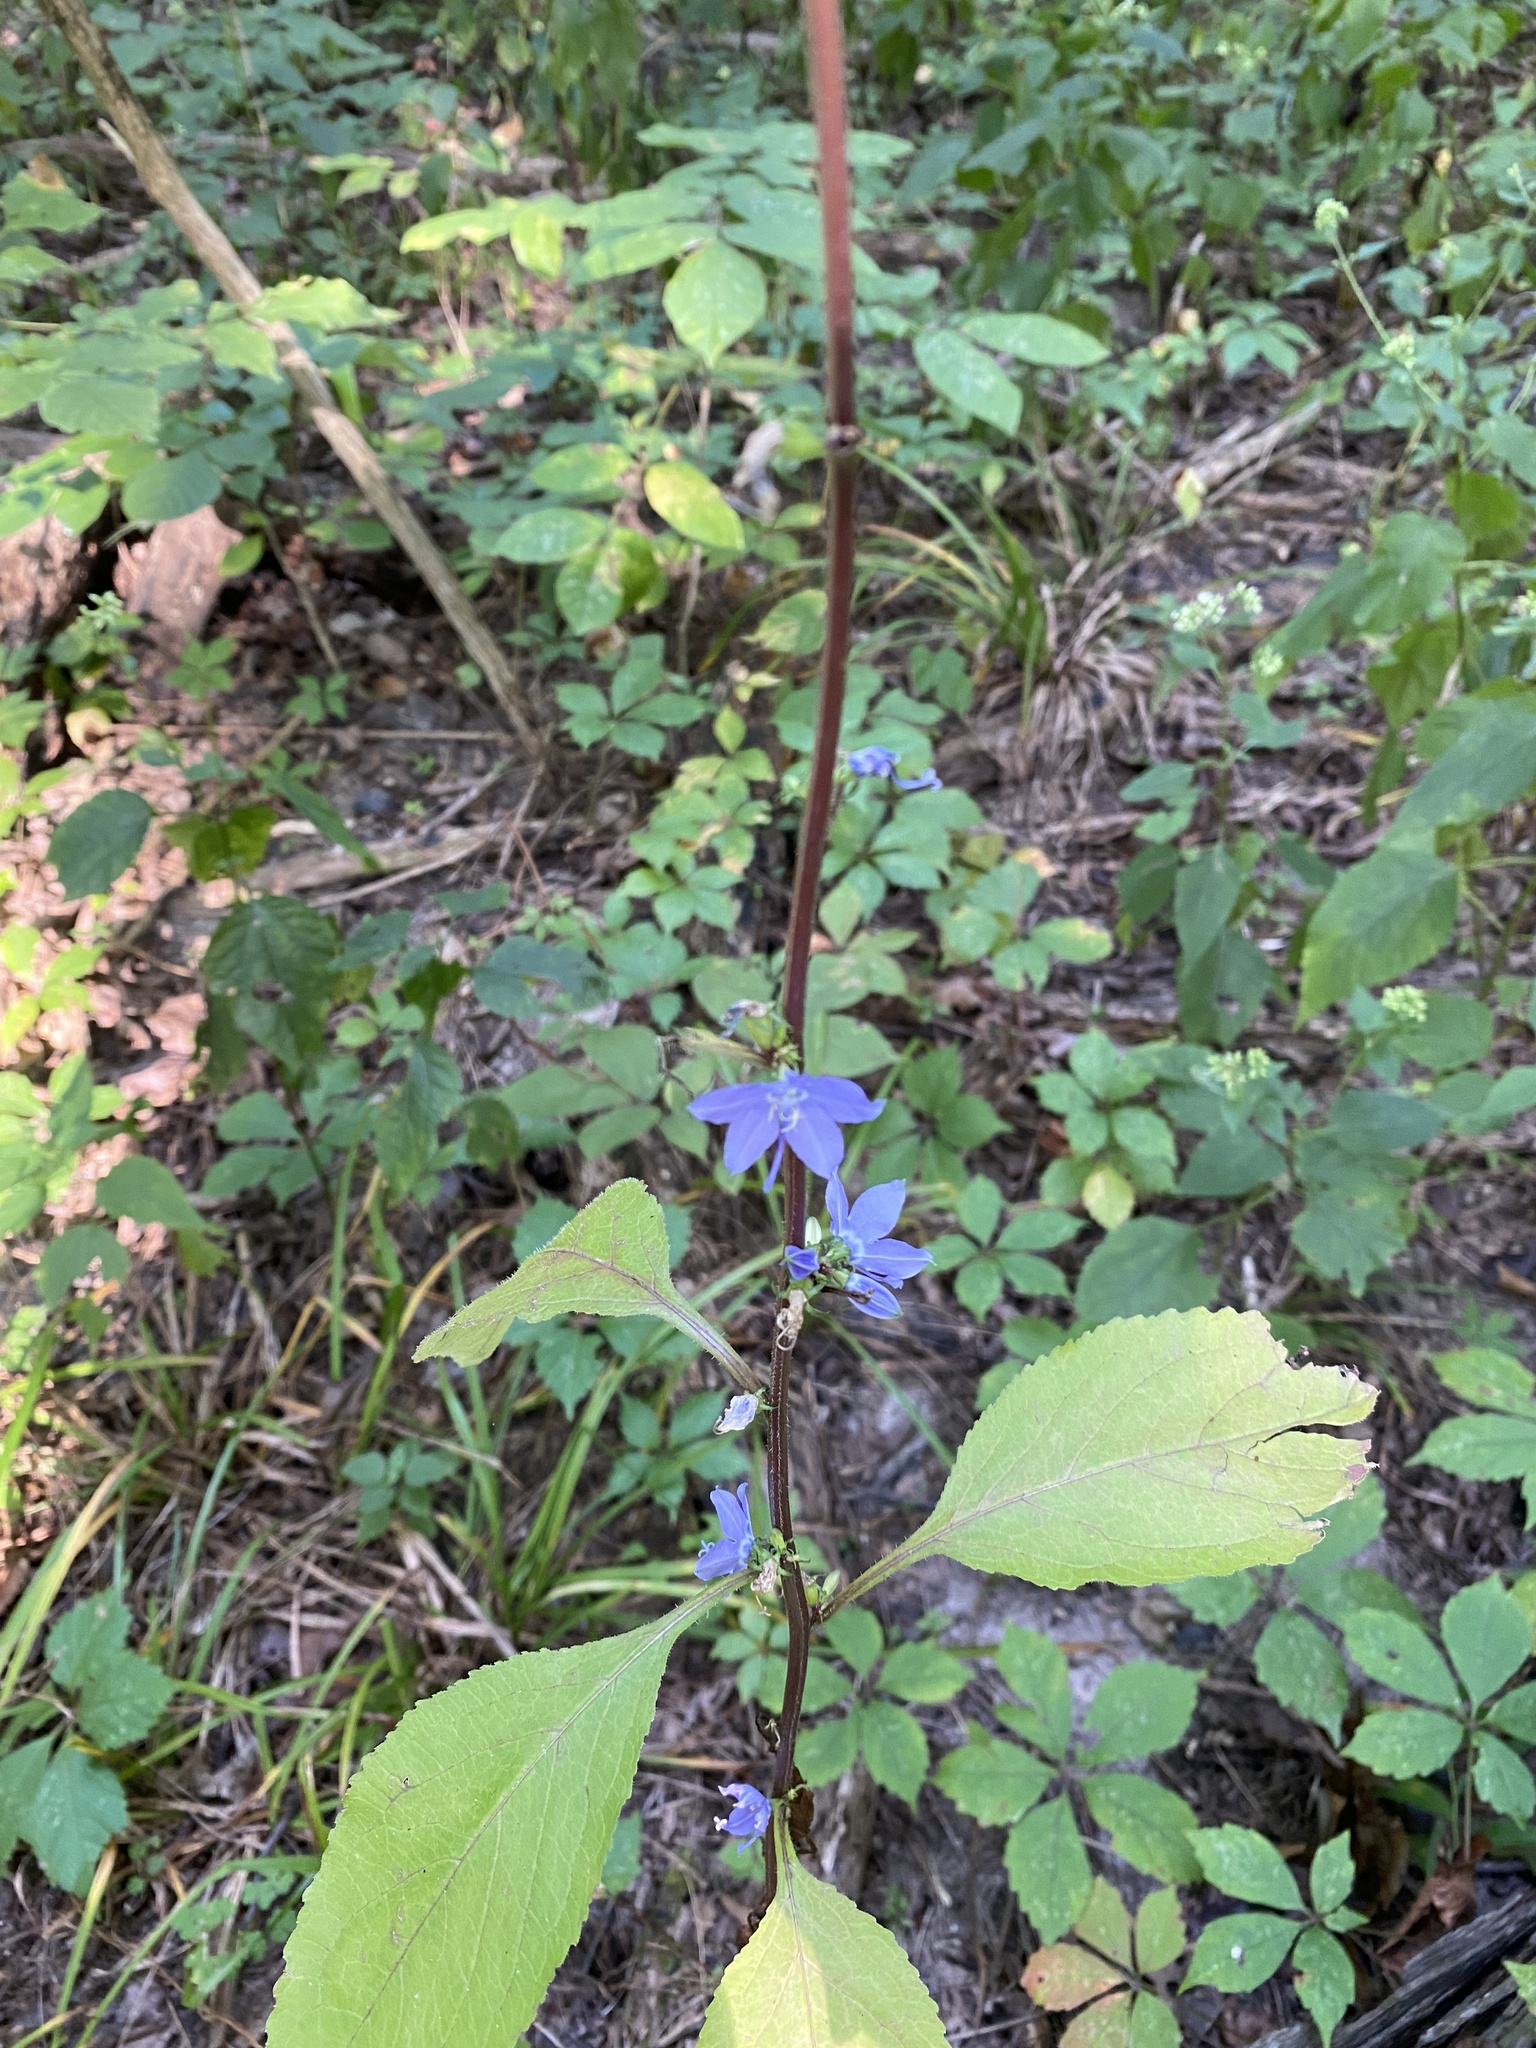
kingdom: Plantae
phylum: Tracheophyta
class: Magnoliopsida
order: Asterales
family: Campanulaceae
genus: Campanulastrum
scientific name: Campanulastrum americanum
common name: American bellflower
